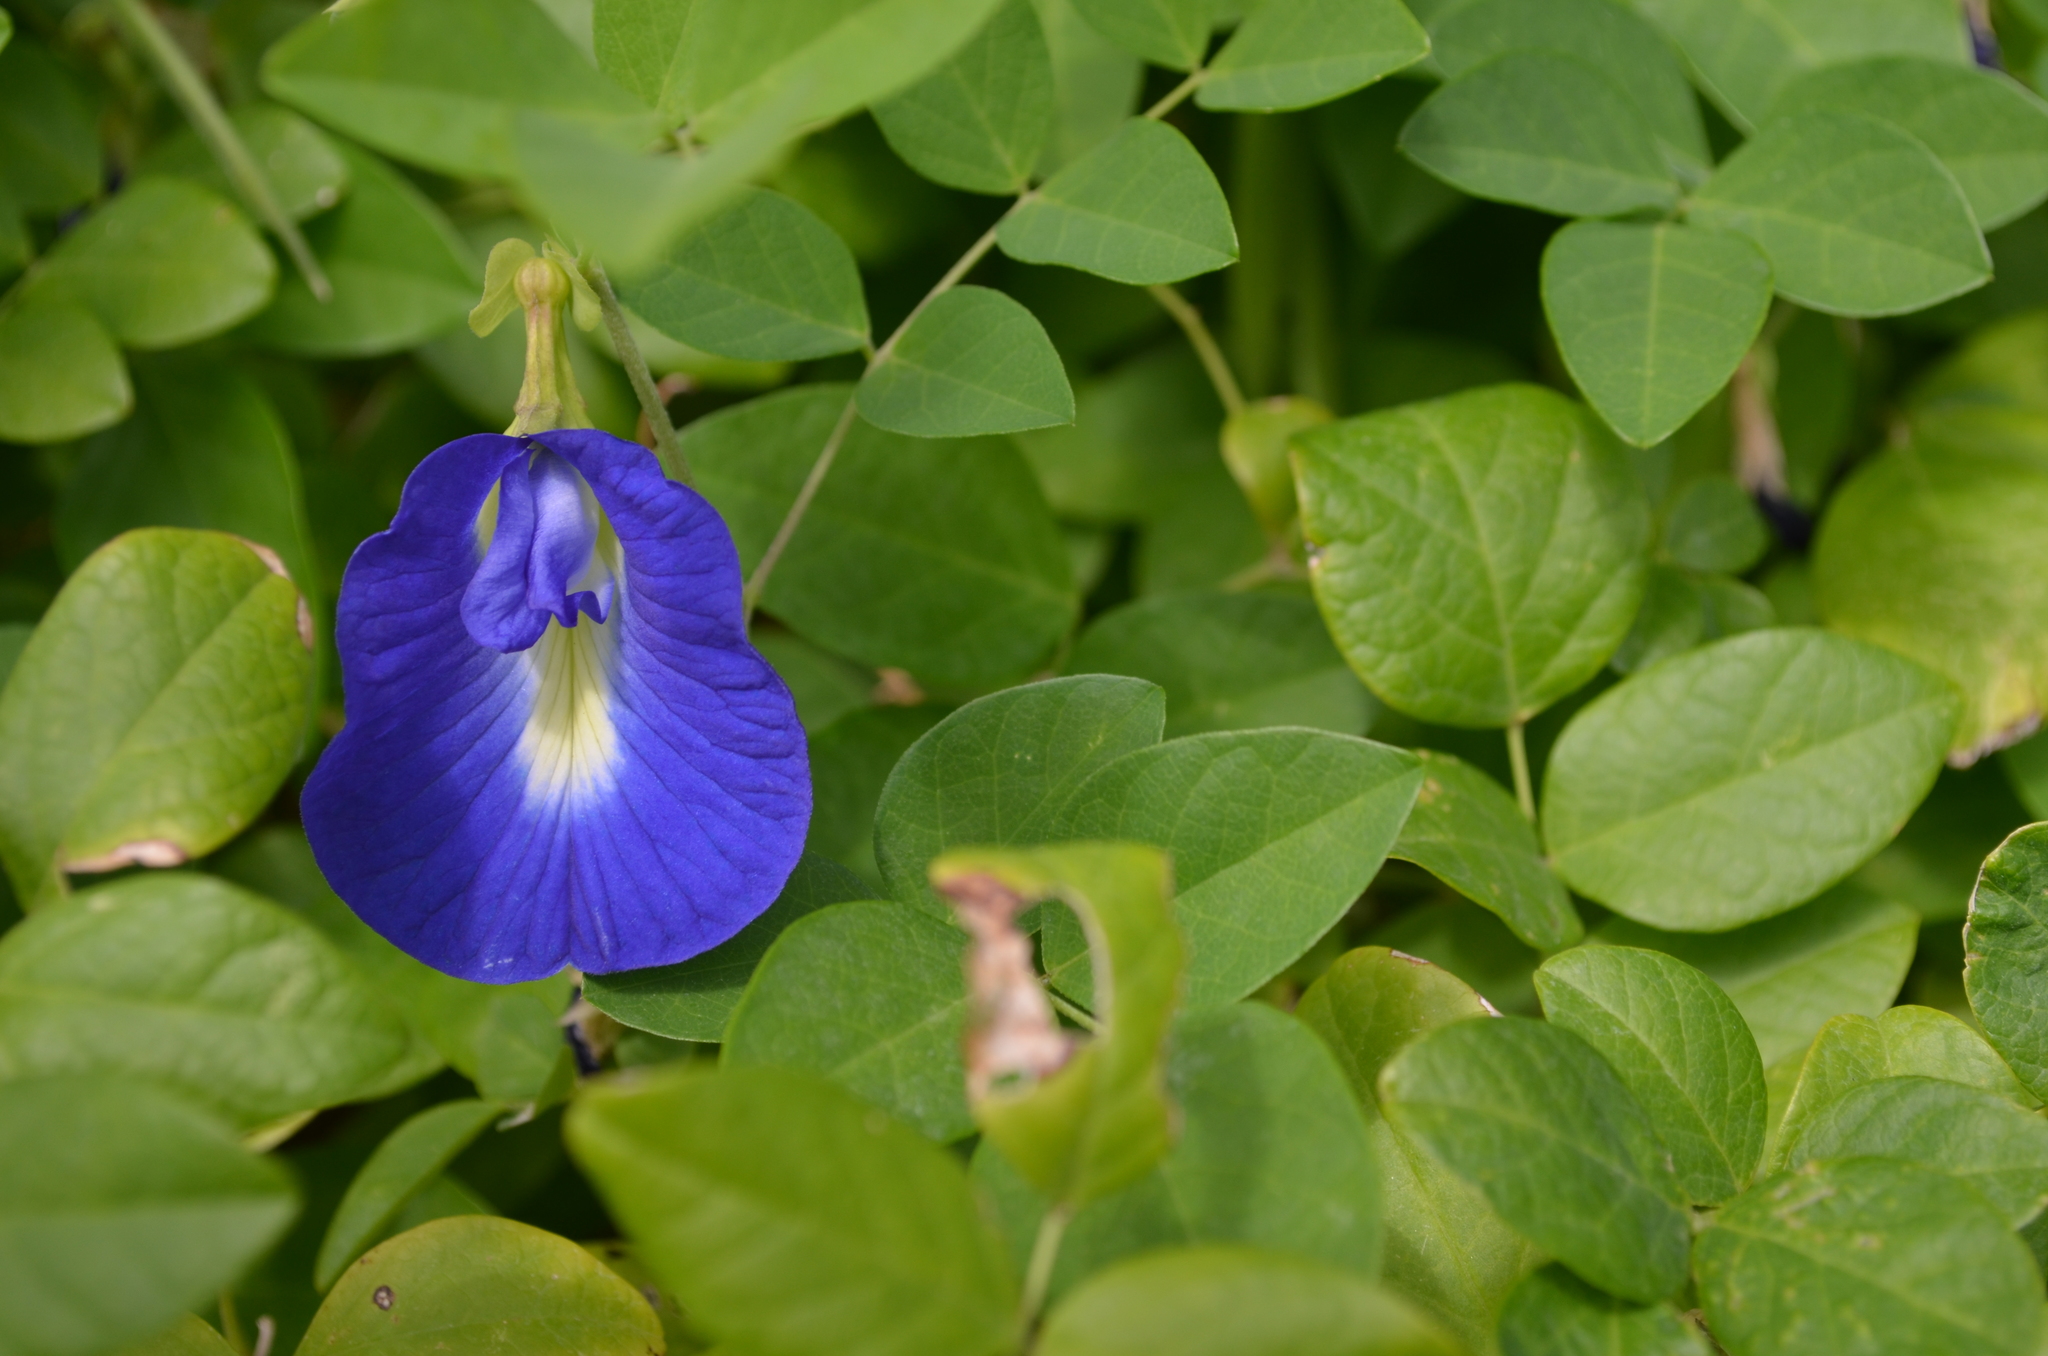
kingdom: Plantae
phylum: Tracheophyta
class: Magnoliopsida
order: Fabales
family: Fabaceae
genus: Clitoria
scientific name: Clitoria ternatea
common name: Asian pigeonwings
